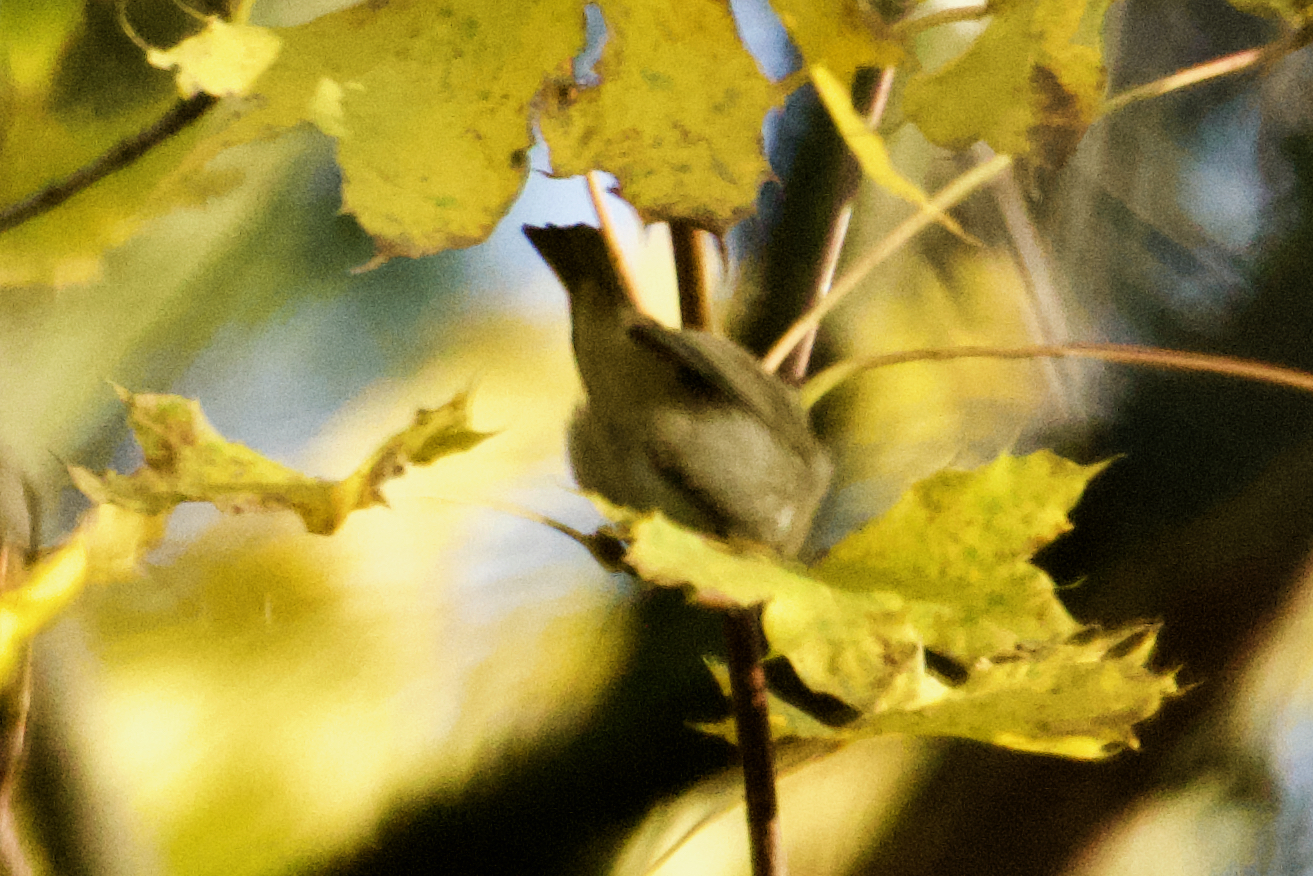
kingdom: Animalia
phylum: Chordata
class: Aves
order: Passeriformes
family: Phylloscopidae
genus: Phylloscopus
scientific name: Phylloscopus collybita
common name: Common chiffchaff
